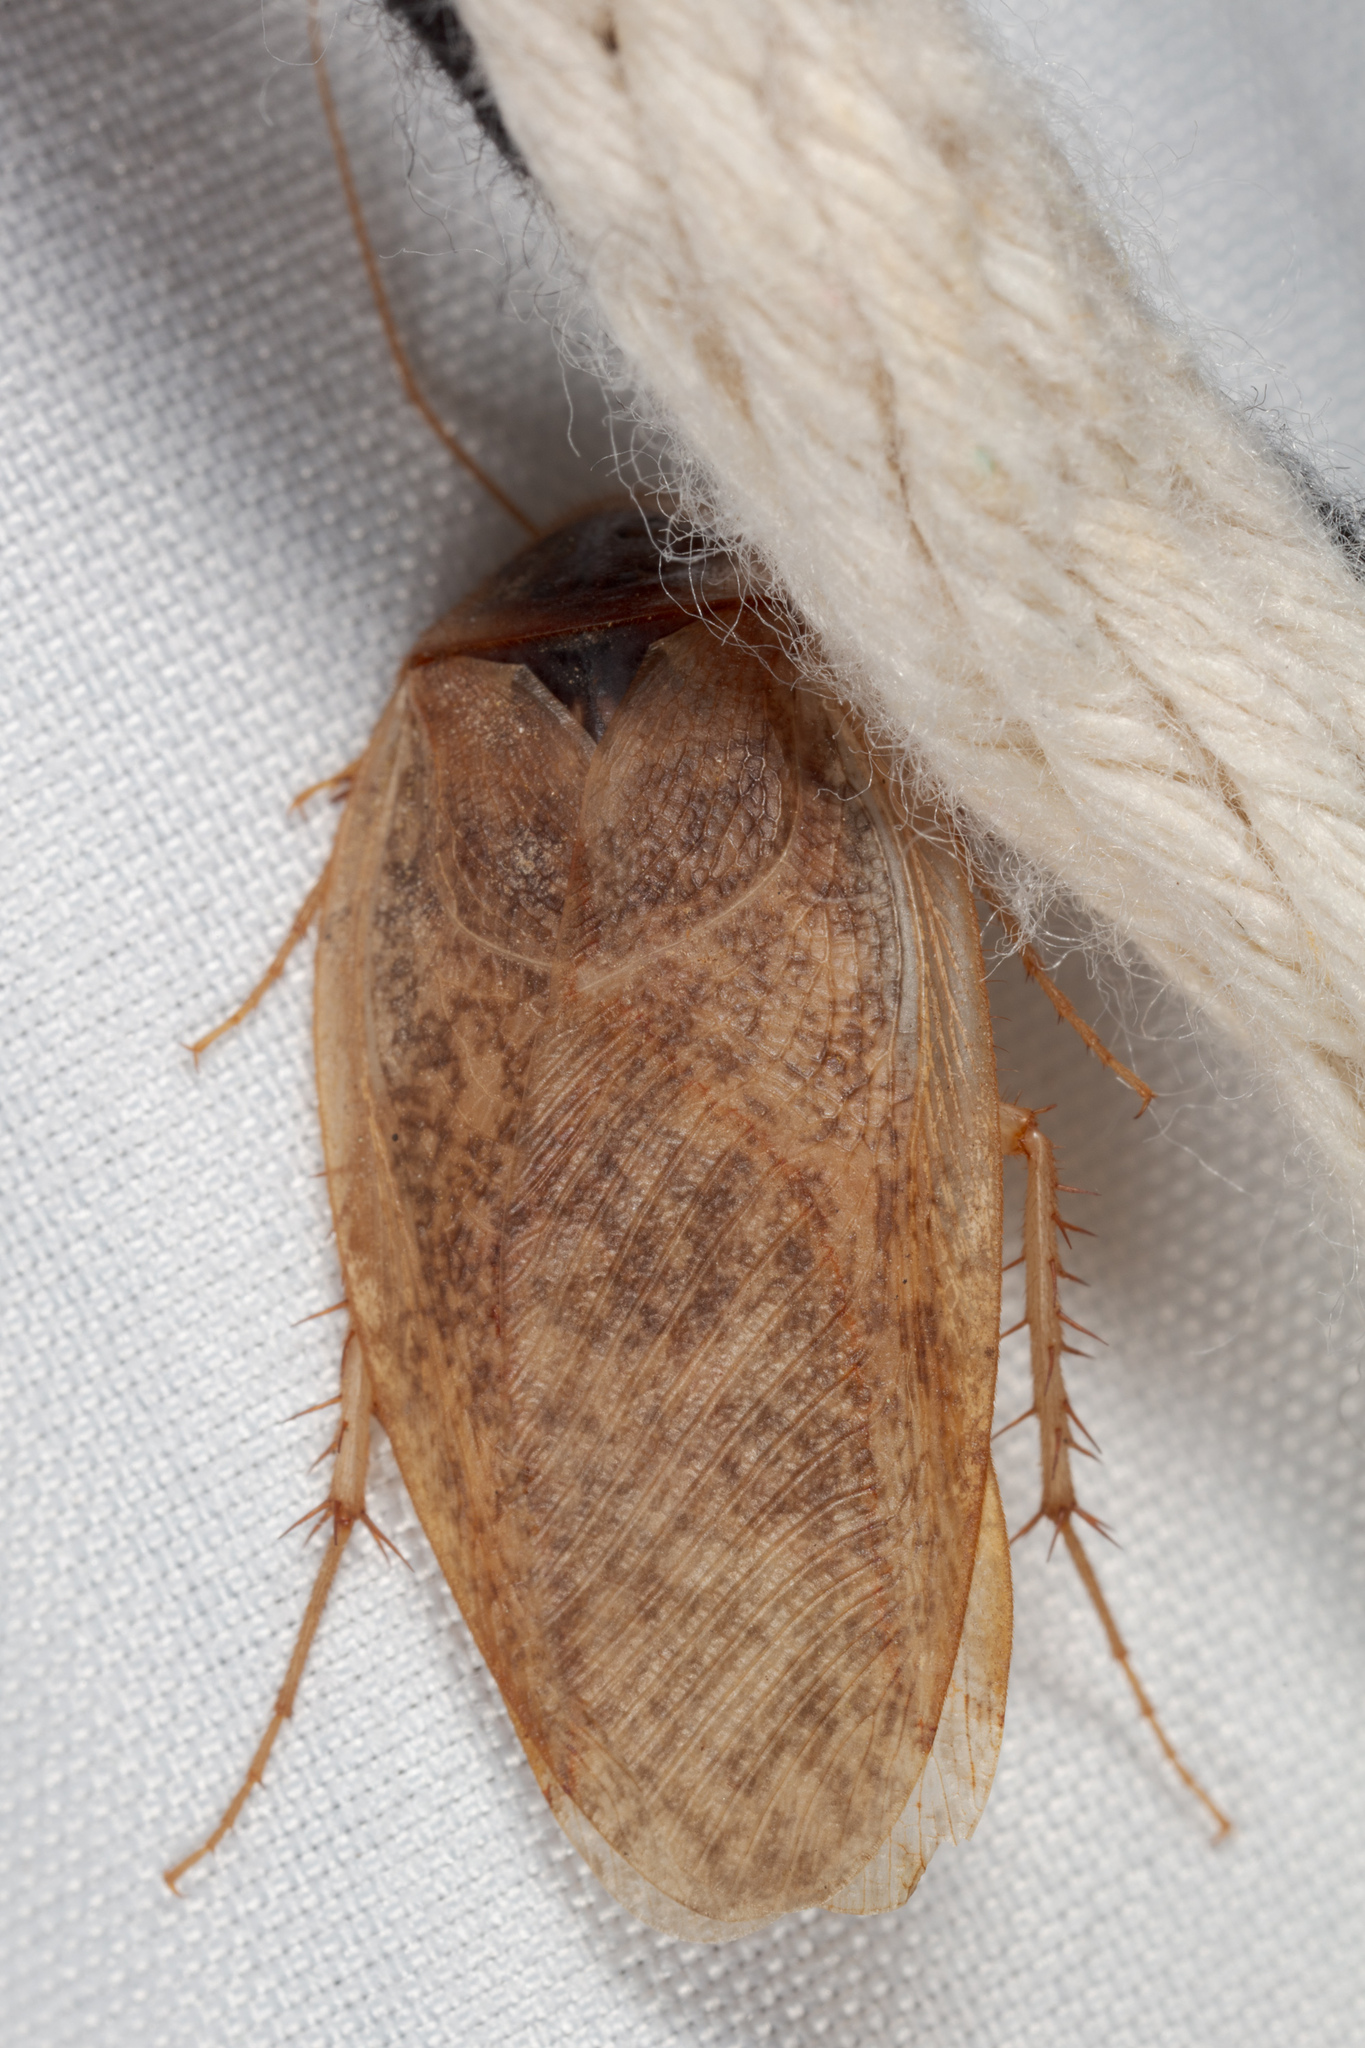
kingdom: Animalia
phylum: Arthropoda
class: Insecta
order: Blattodea
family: Corydiidae
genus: Arenivaga
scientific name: Arenivaga bolliana
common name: Boll's sand cockroach
